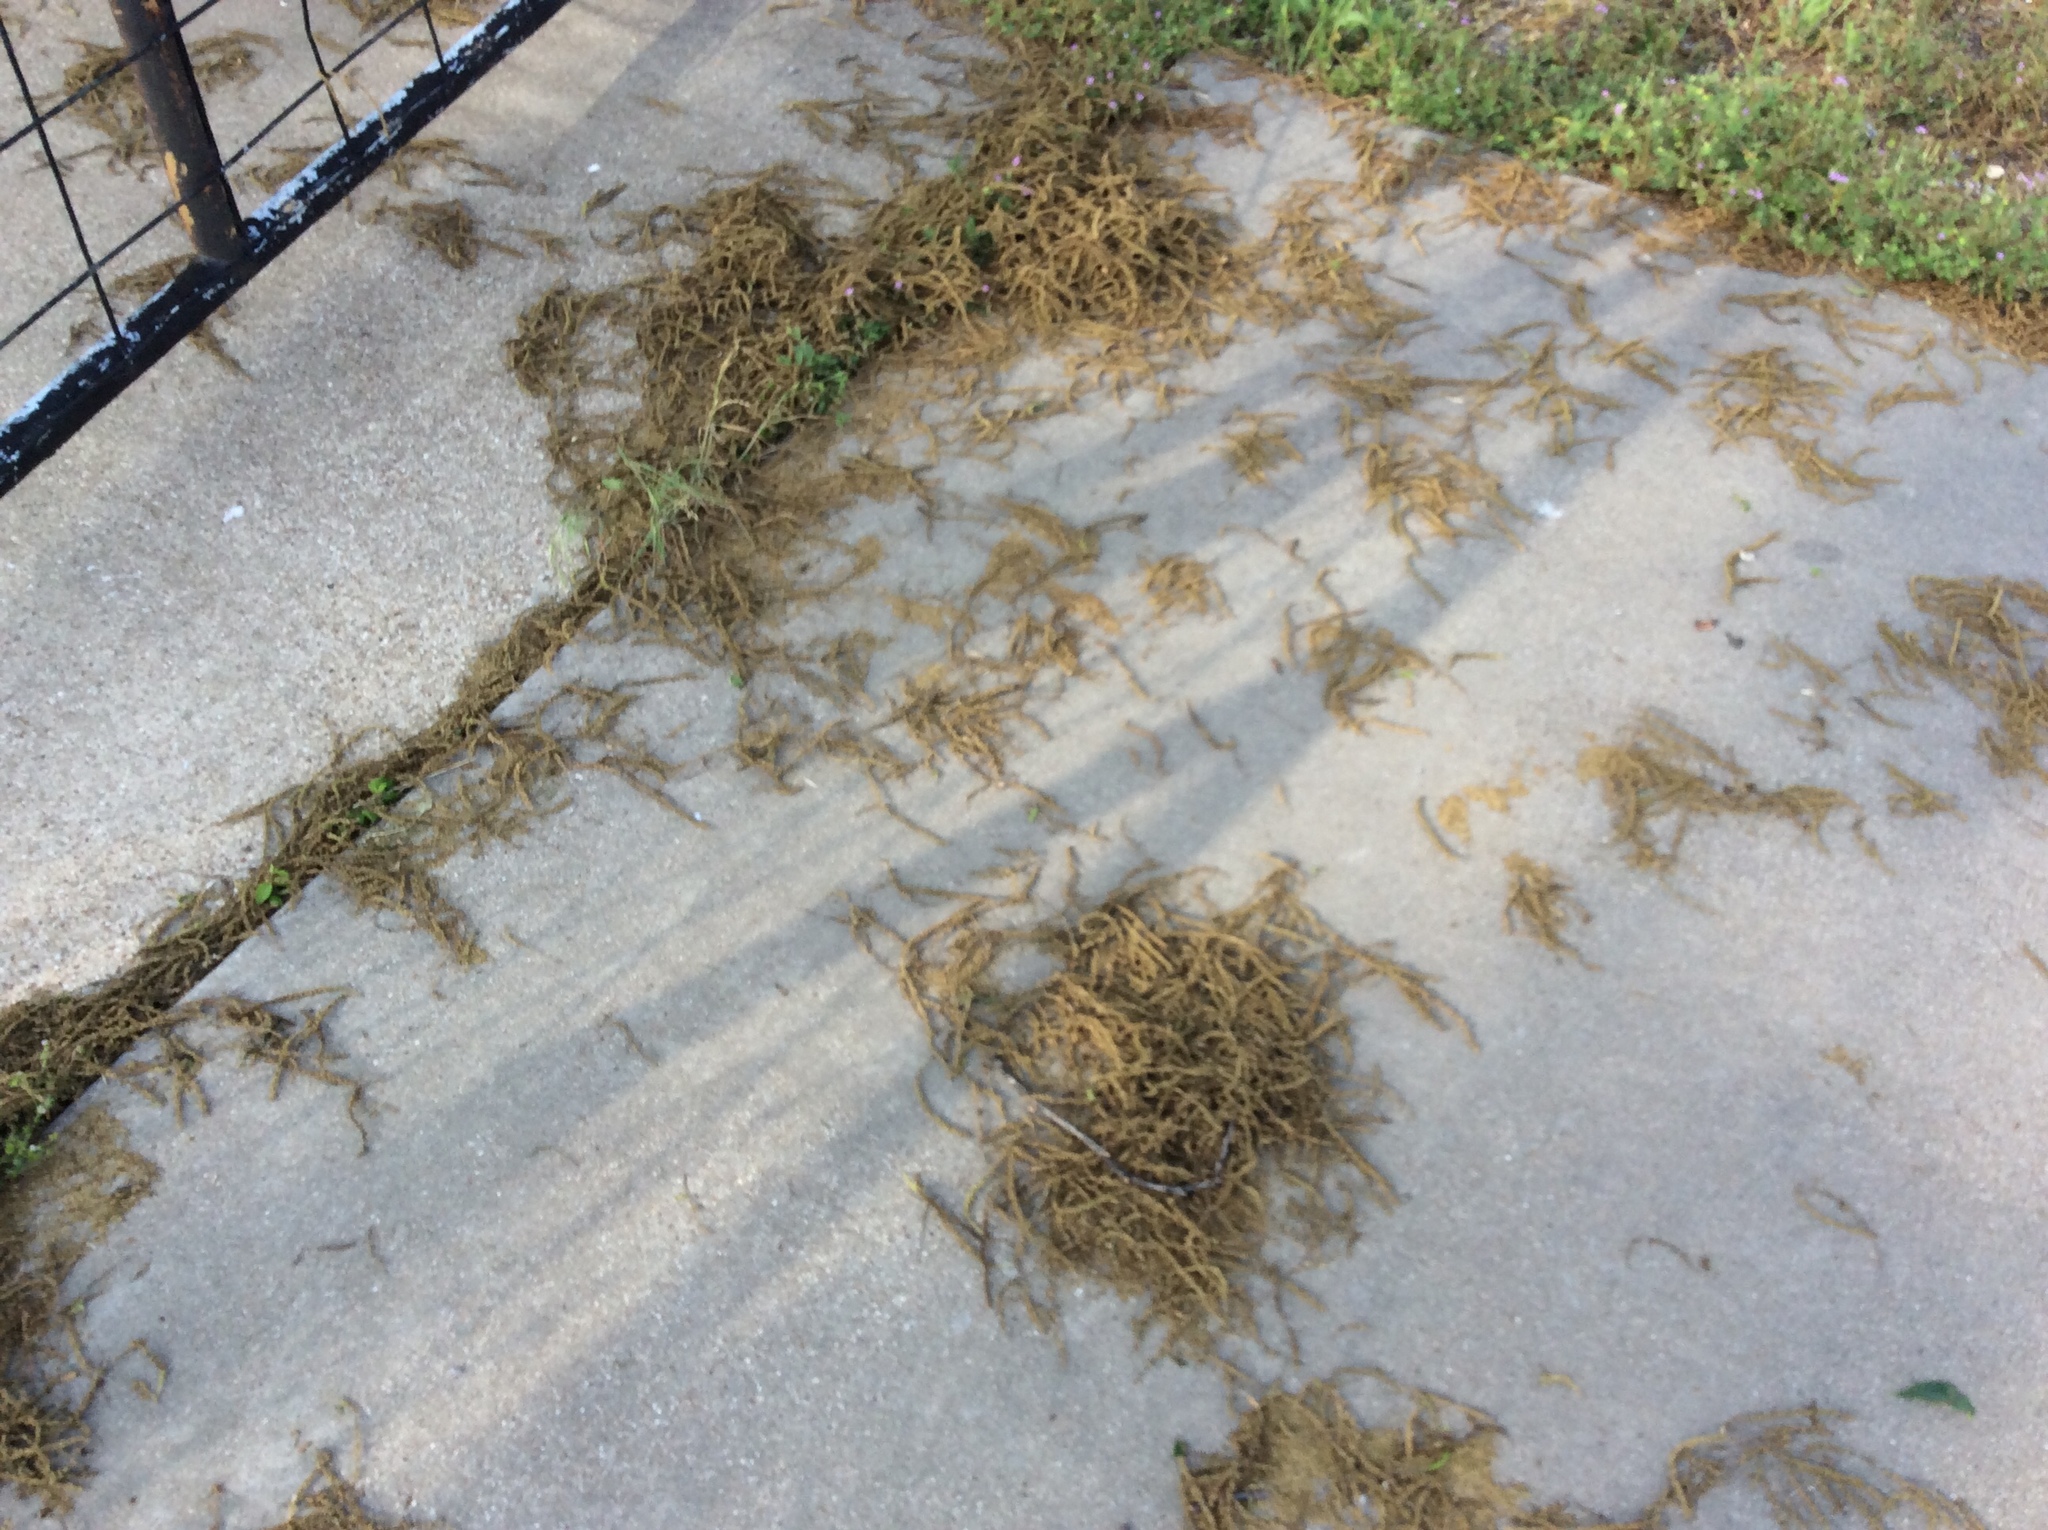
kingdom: Plantae
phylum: Tracheophyta
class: Magnoliopsida
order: Fagales
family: Juglandaceae
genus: Carya
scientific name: Carya illinoinensis
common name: Pecan
